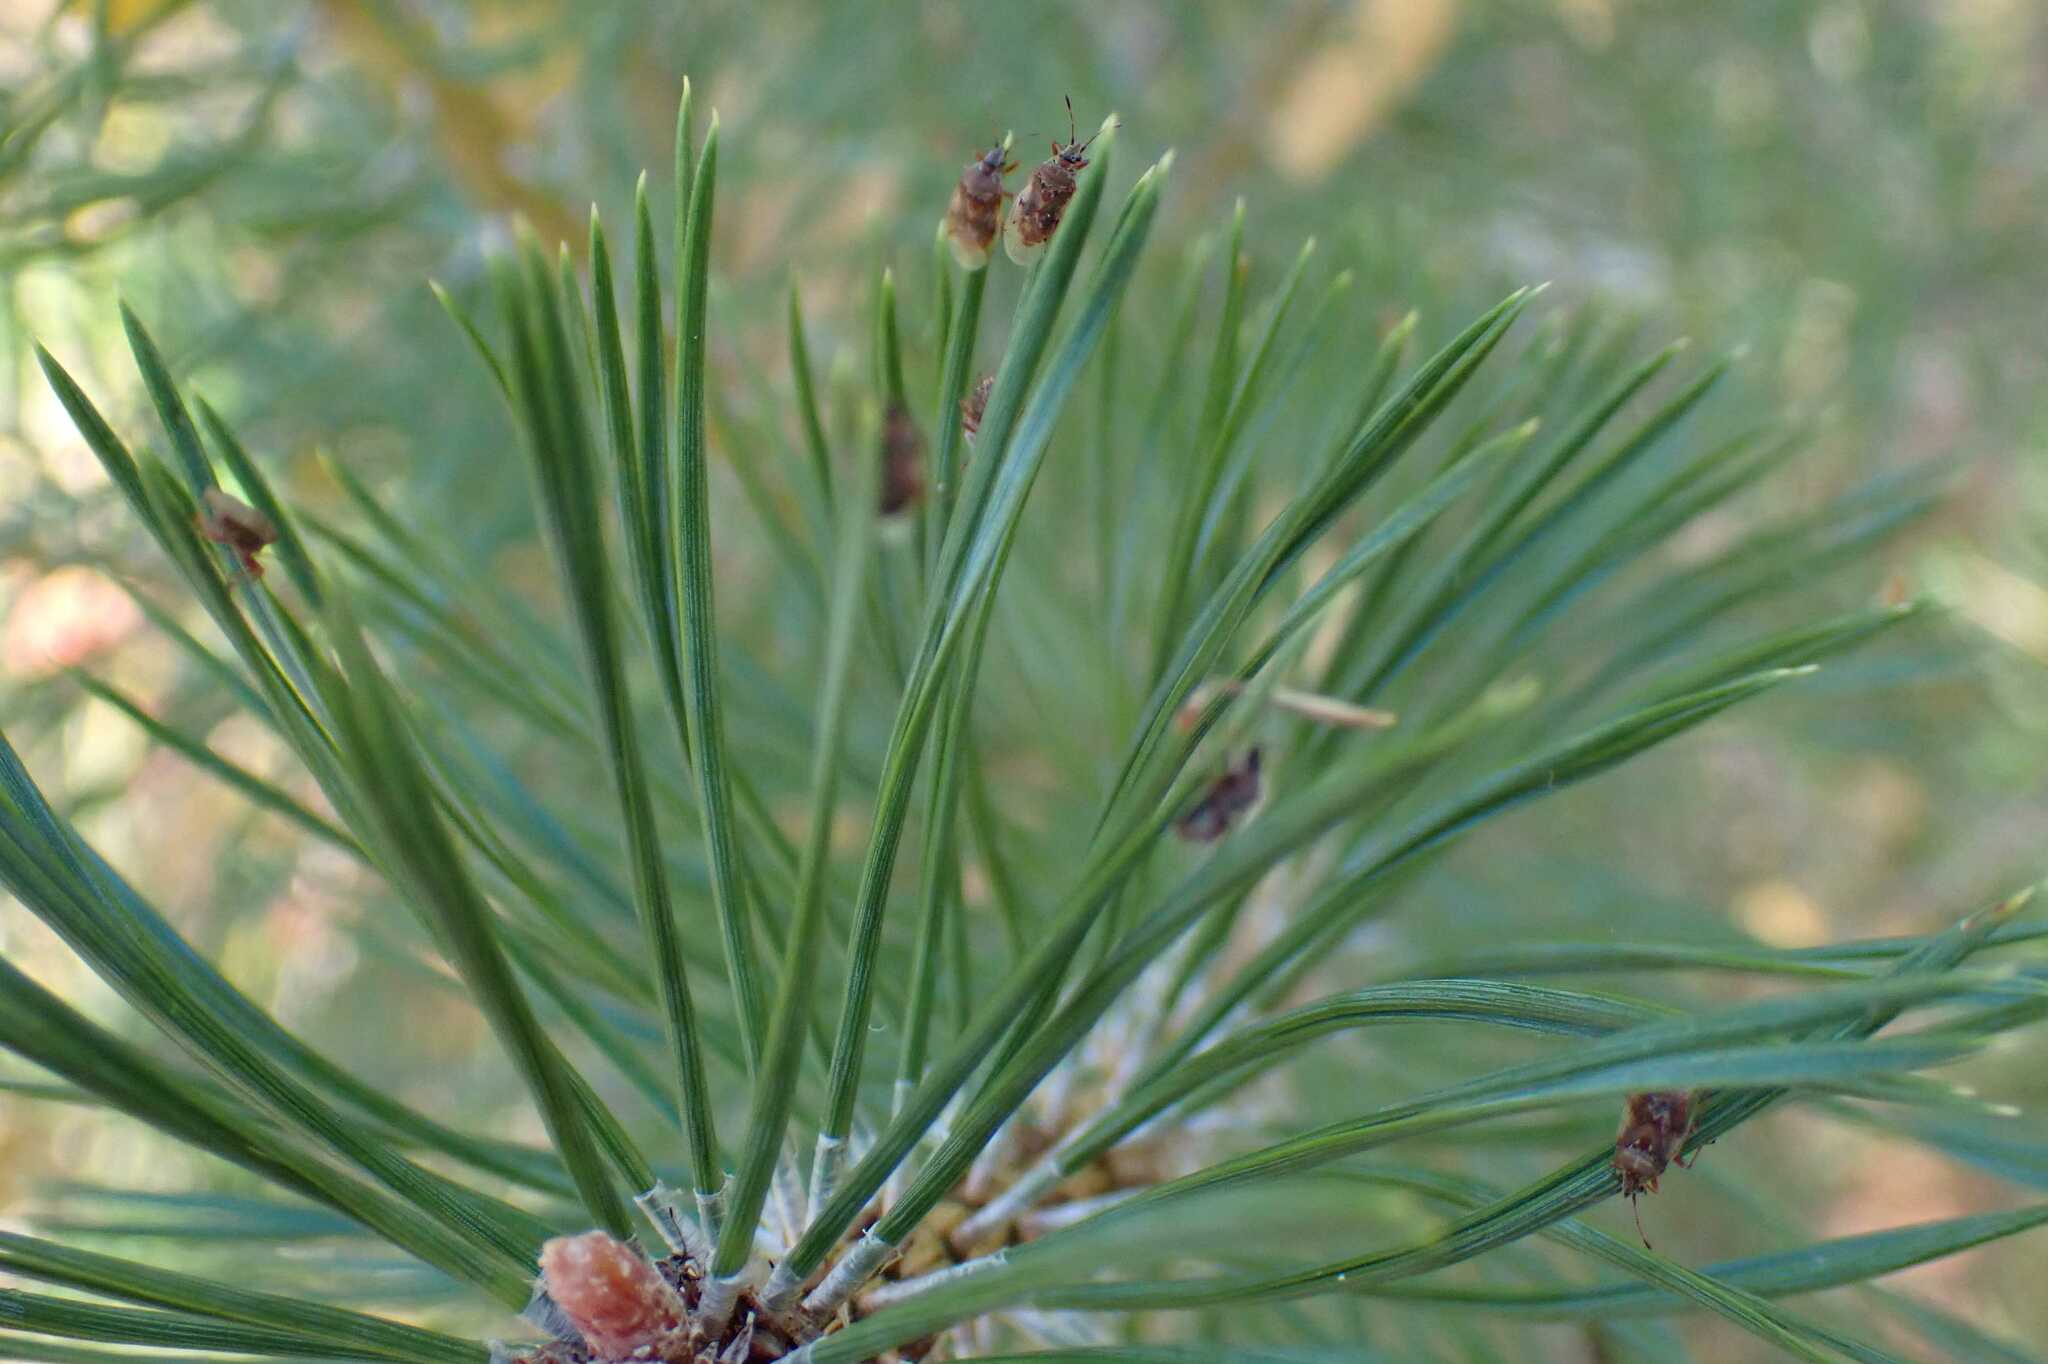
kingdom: Animalia
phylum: Arthropoda
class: Insecta
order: Hemiptera
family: Lygaeidae
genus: Kleidocerys
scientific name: Kleidocerys resedae
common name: Birch catkin bug
